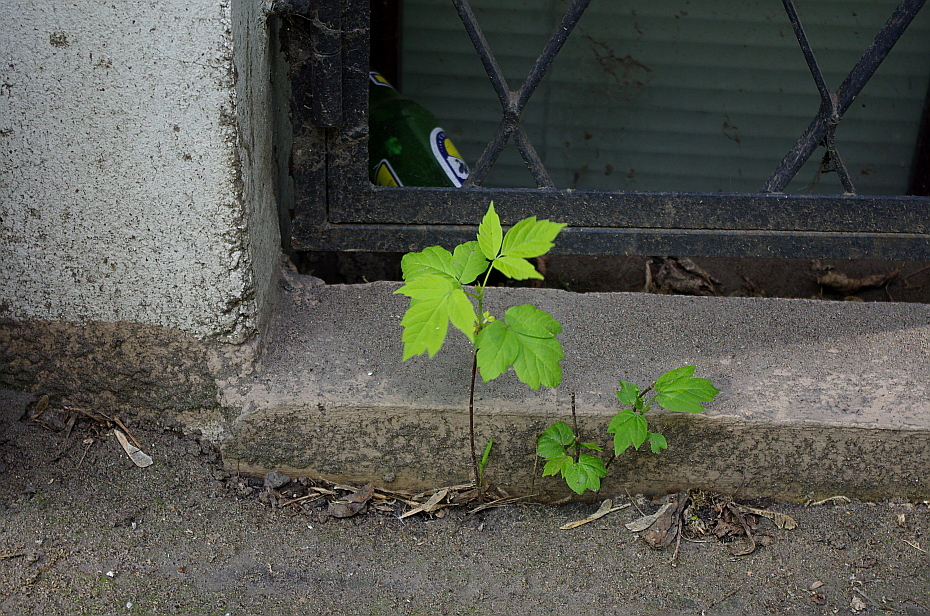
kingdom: Plantae
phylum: Tracheophyta
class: Magnoliopsida
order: Sapindales
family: Sapindaceae
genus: Acer
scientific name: Acer negundo
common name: Ashleaf maple
